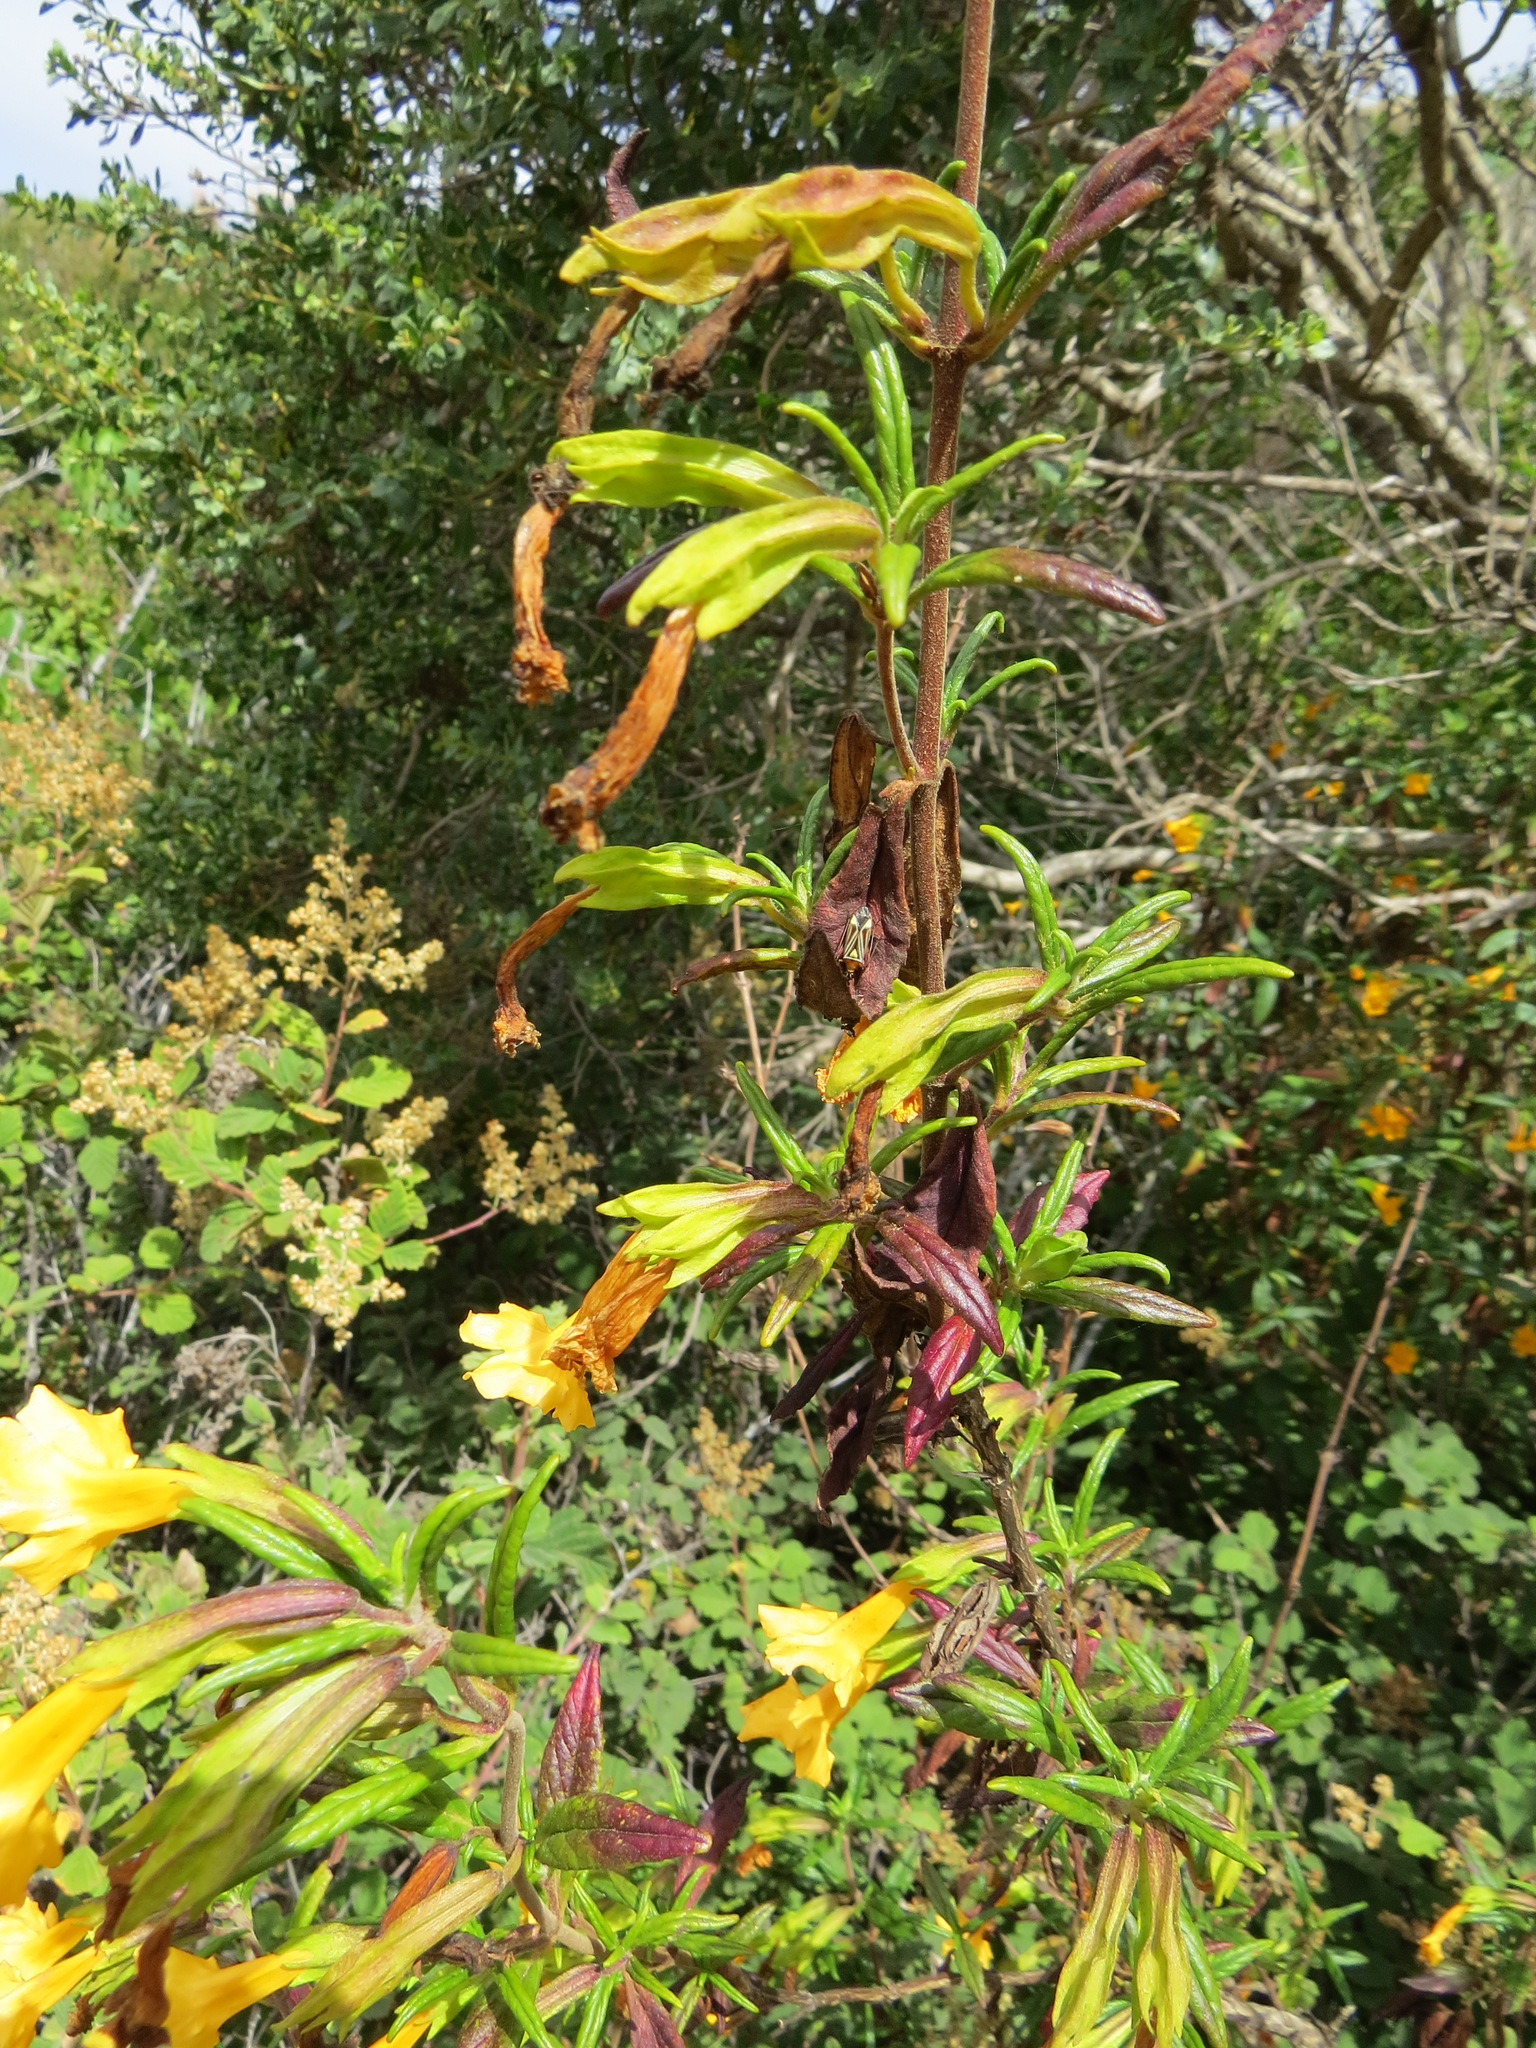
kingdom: Animalia
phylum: Arthropoda
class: Insecta
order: Hemiptera
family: Miridae
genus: Closterocoris
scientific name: Closterocoris amoenus
